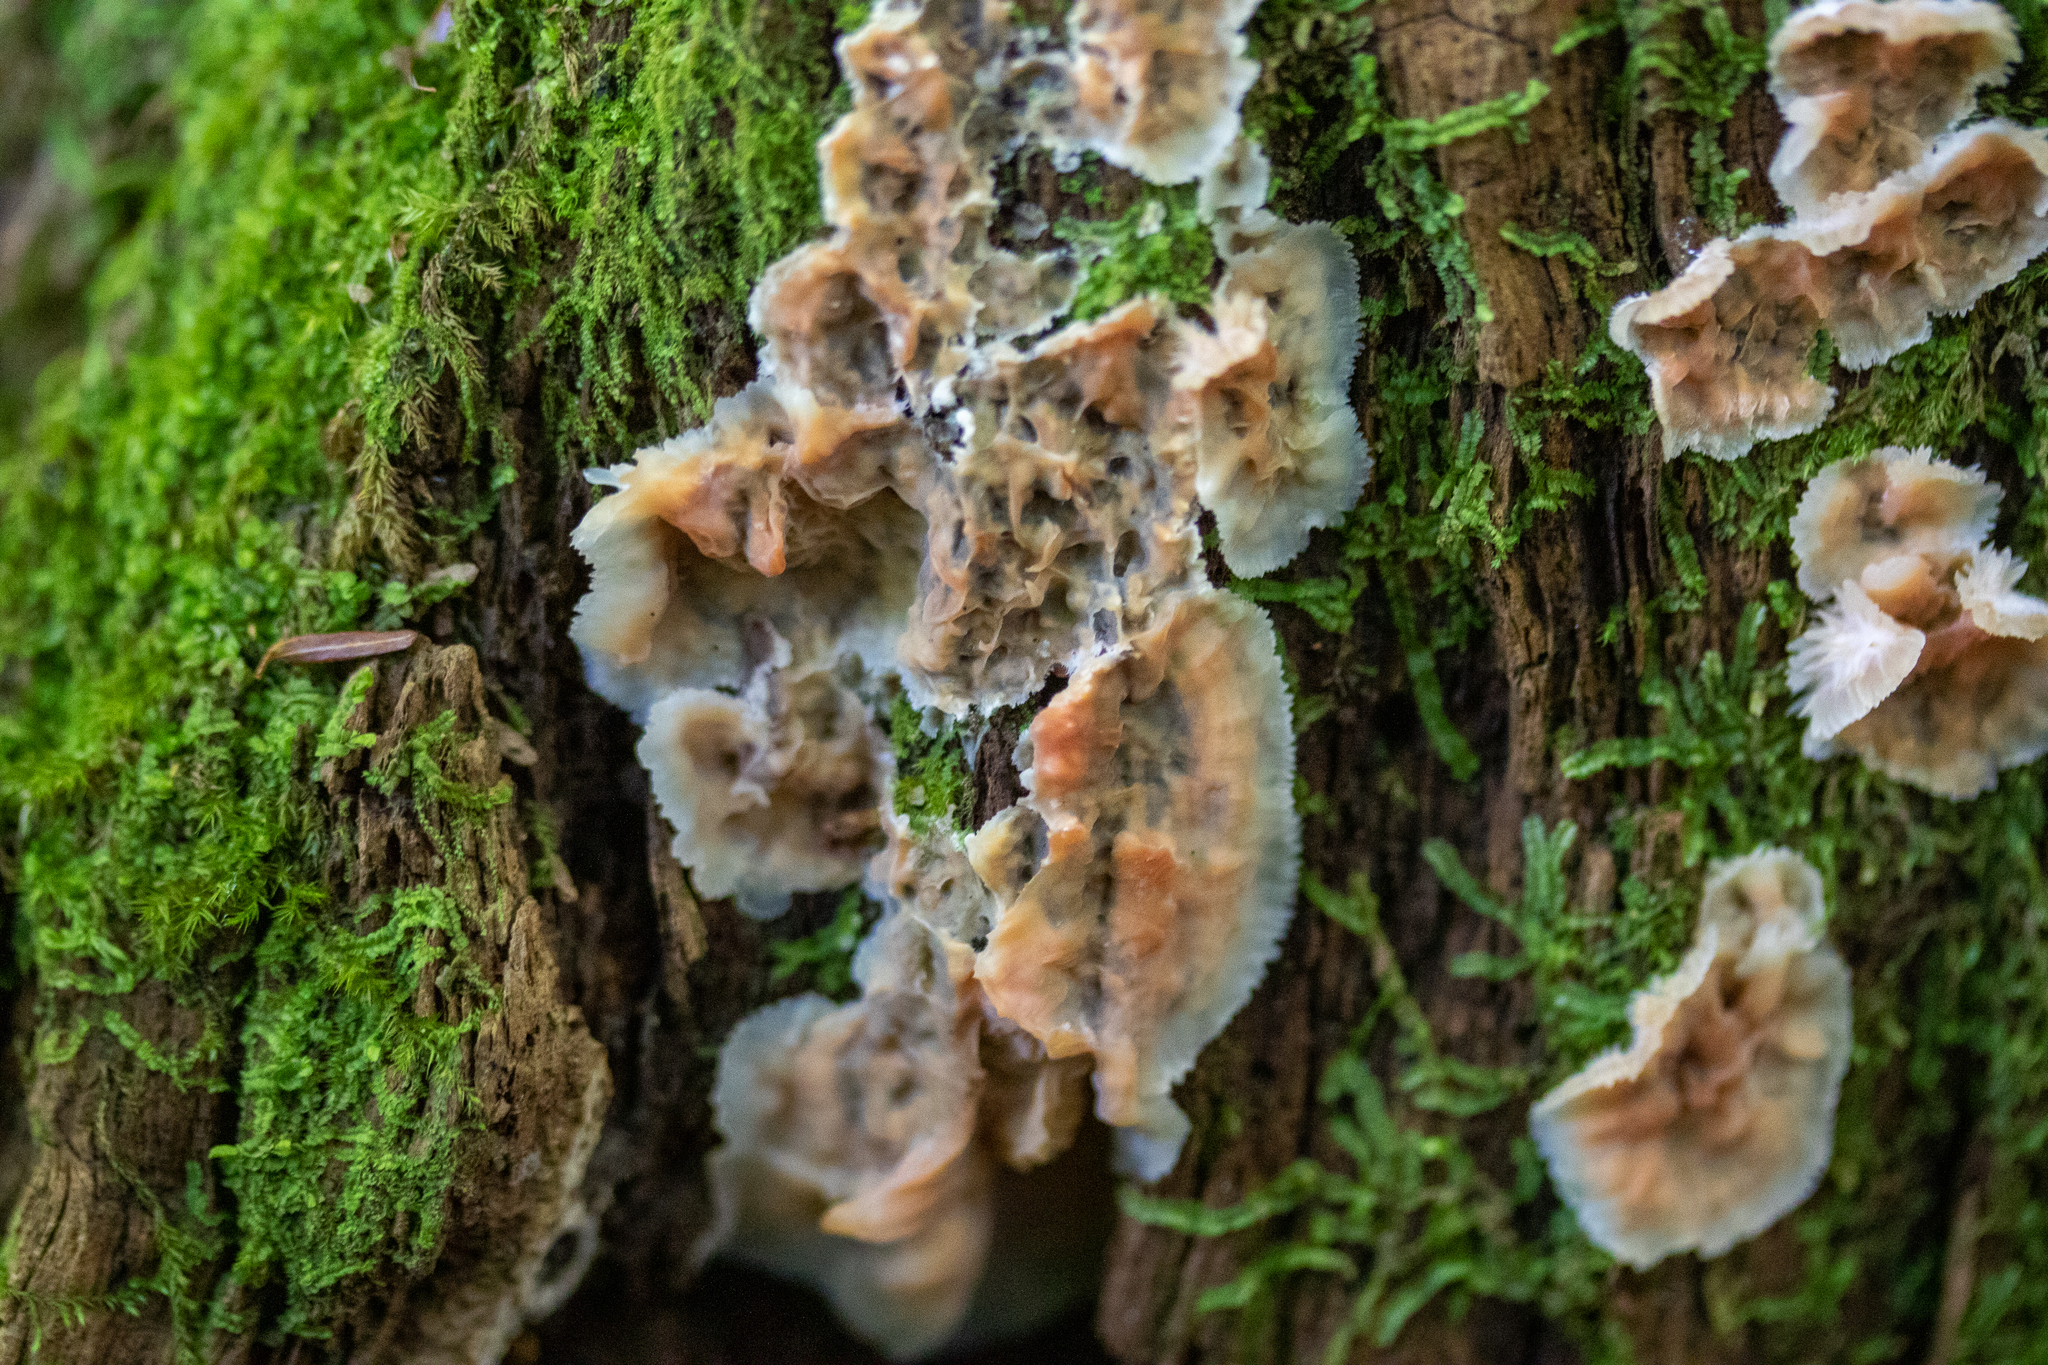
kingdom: Fungi
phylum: Basidiomycota
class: Agaricomycetes
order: Polyporales
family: Meruliaceae
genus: Phlebia
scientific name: Phlebia tremellosa
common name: Jelly rot
